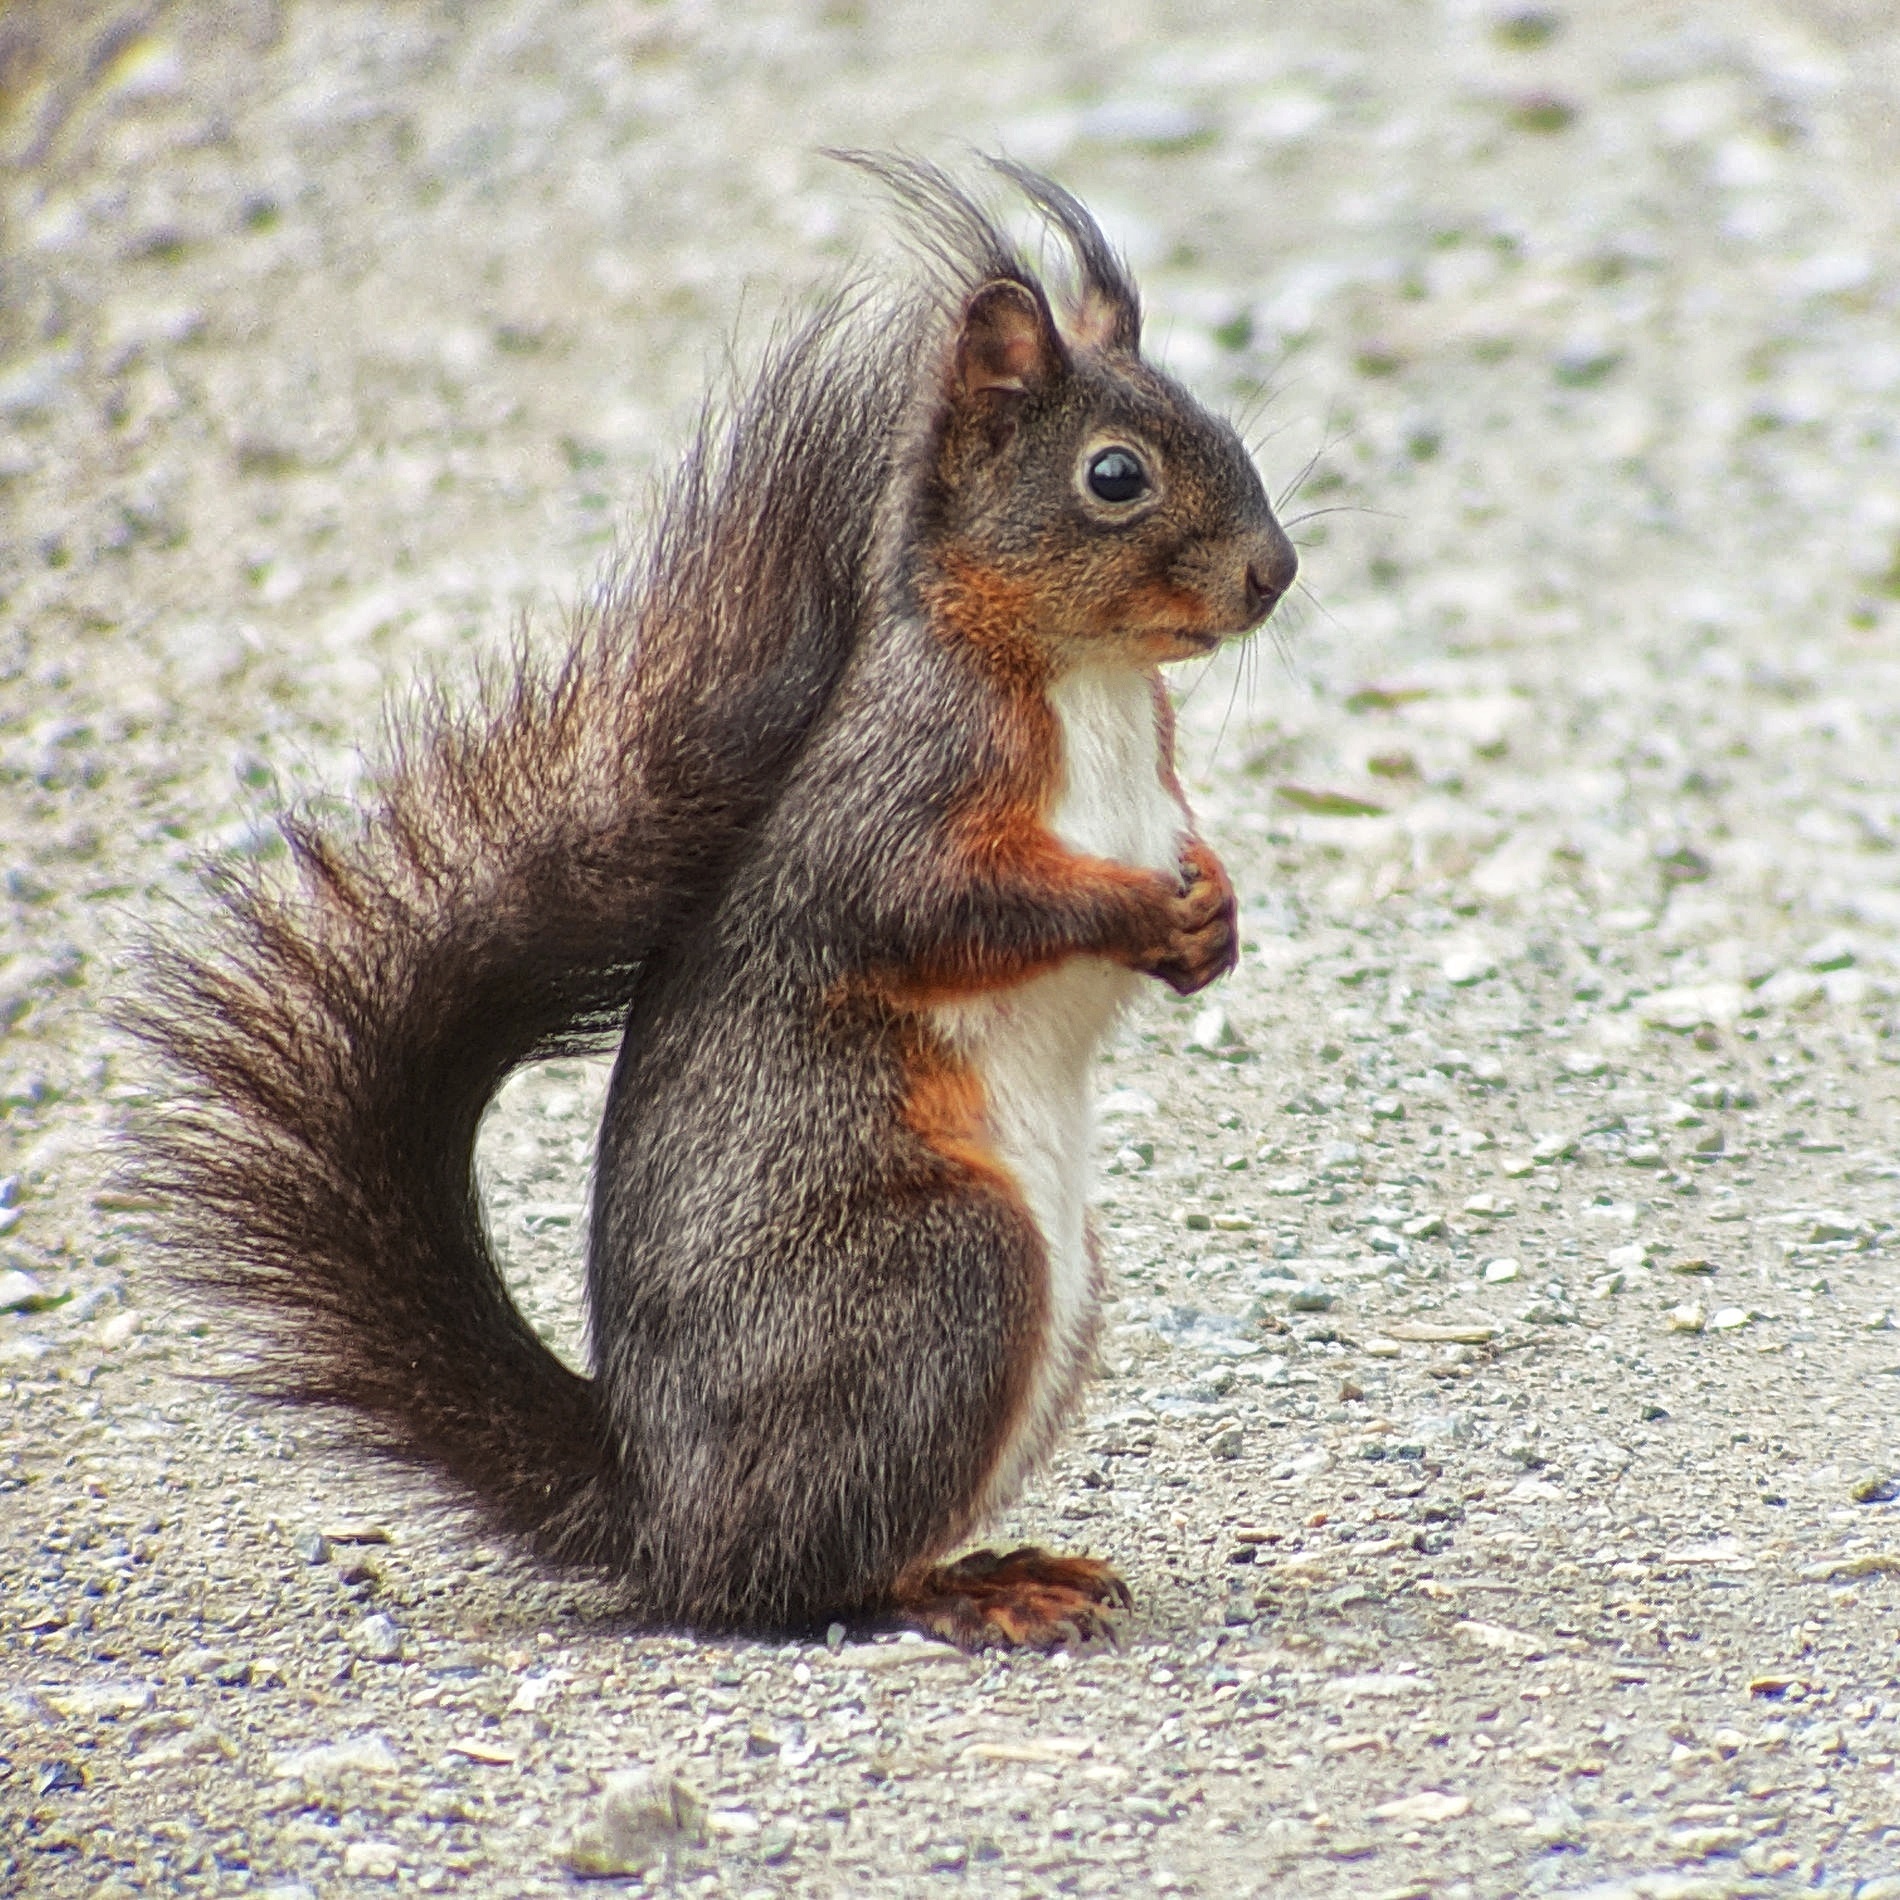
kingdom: Animalia
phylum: Chordata
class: Mammalia
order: Rodentia
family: Sciuridae
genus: Sciurus
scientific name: Sciurus vulgaris
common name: Eurasian red squirrel
